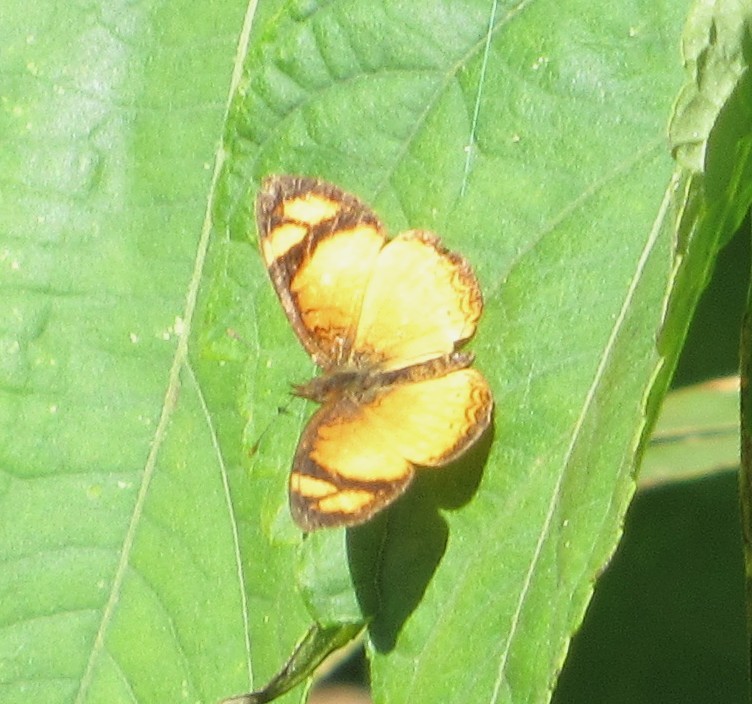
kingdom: Animalia
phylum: Arthropoda
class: Insecta
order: Lepidoptera
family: Nymphalidae
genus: Tegosa
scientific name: Tegosa claudina
